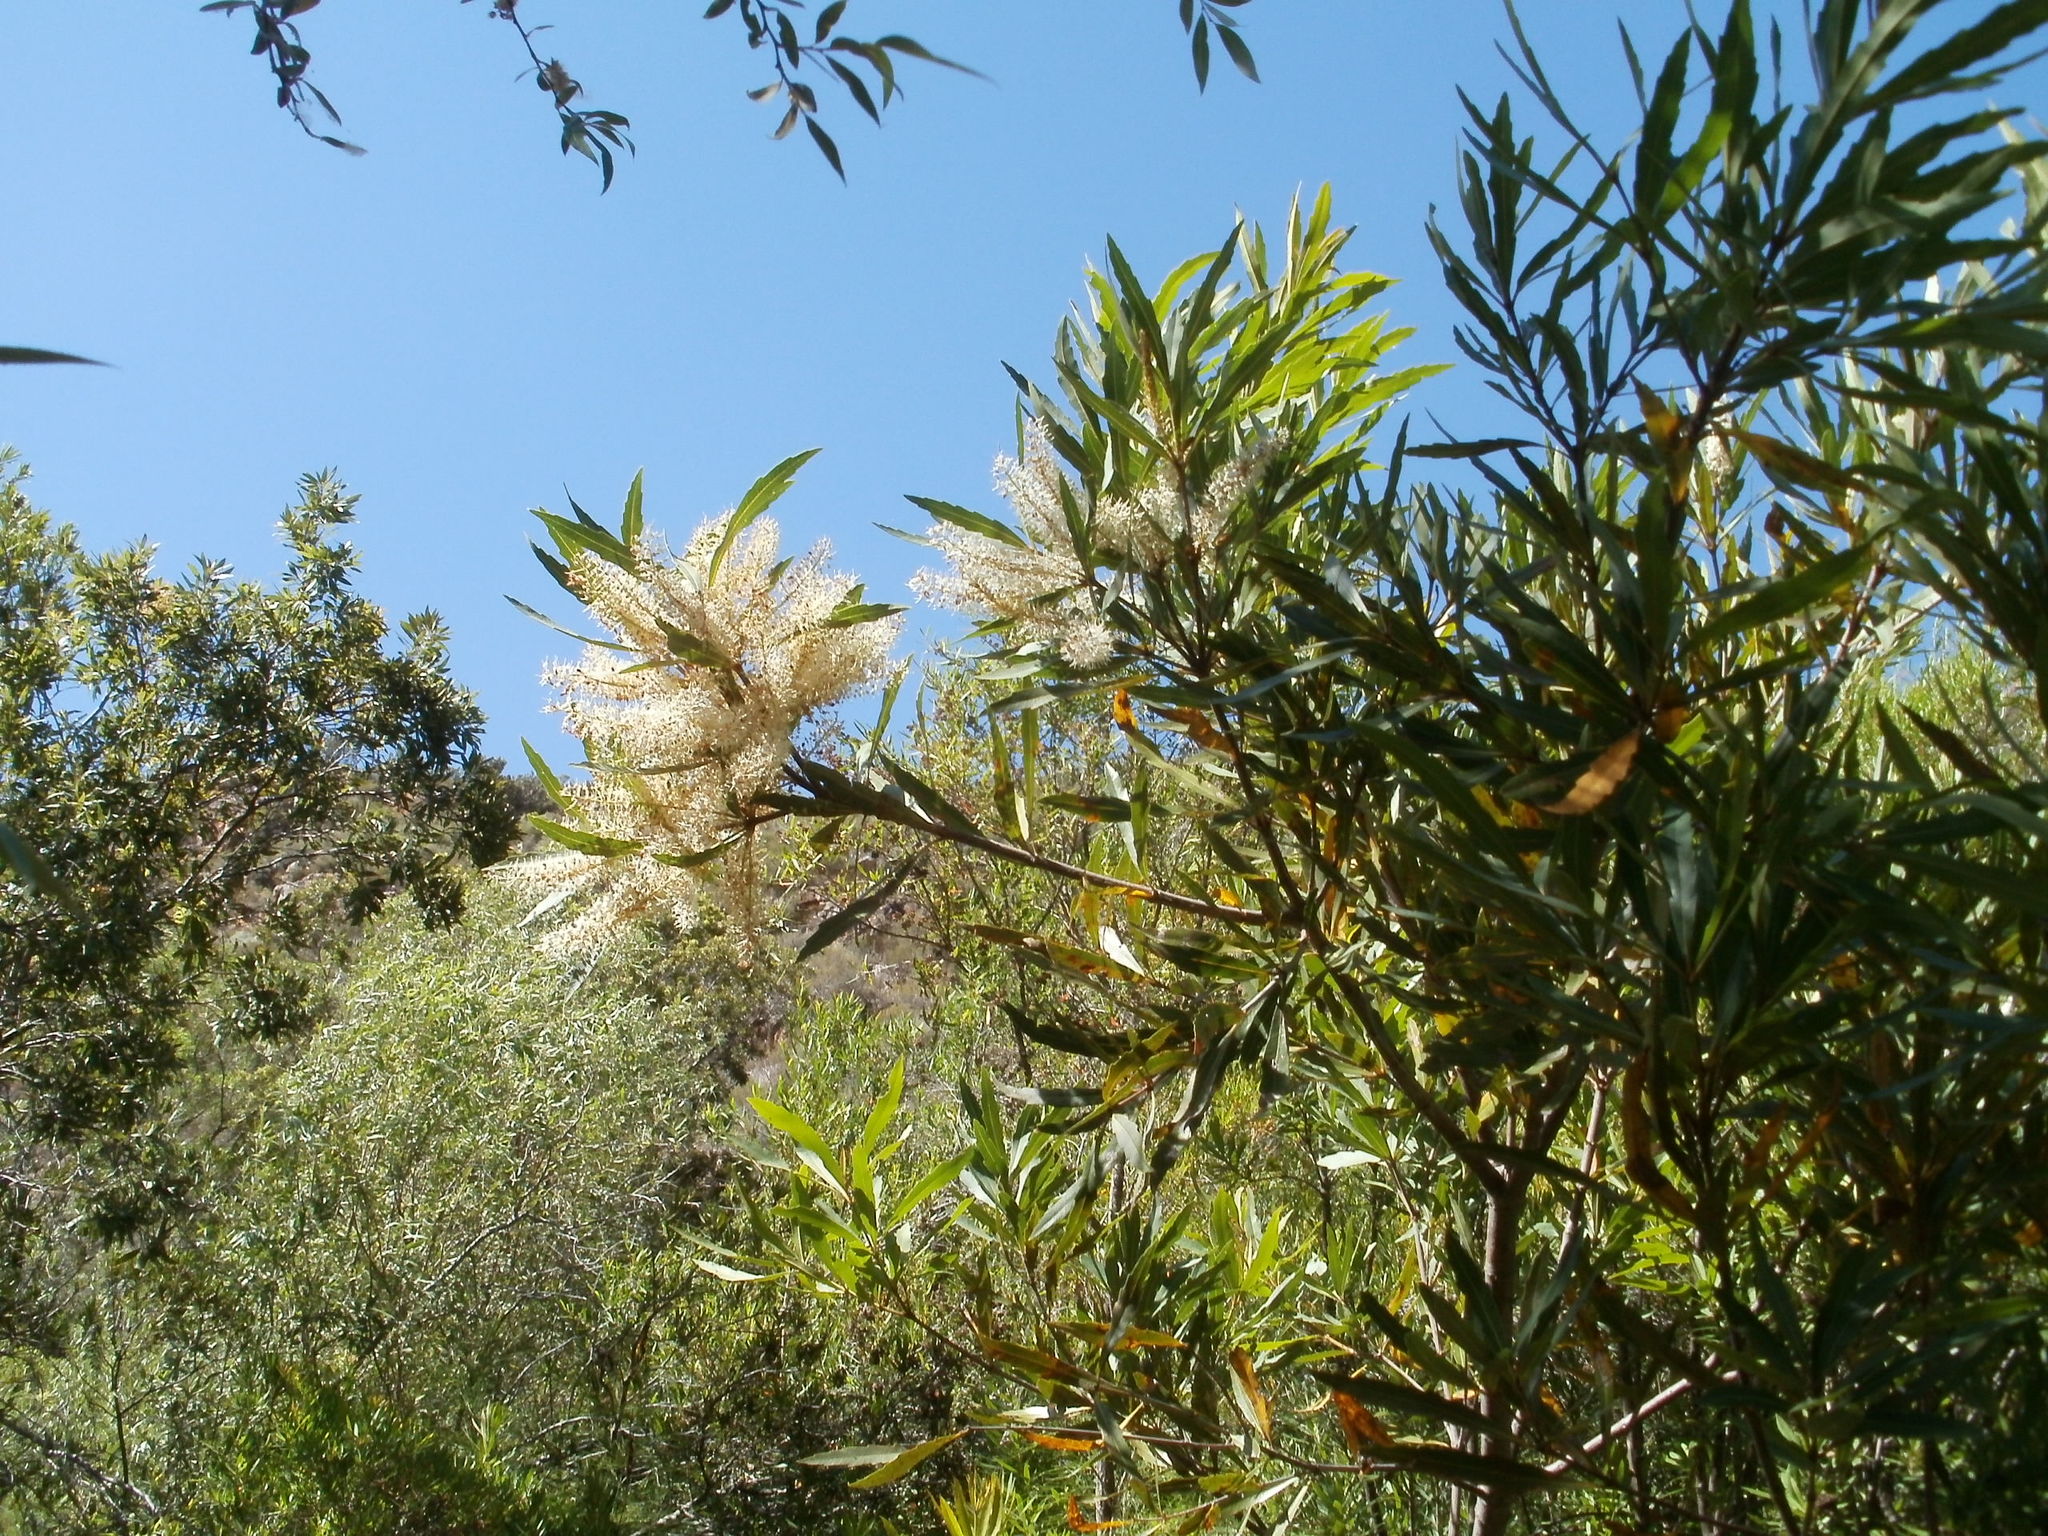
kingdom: Plantae
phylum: Tracheophyta
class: Magnoliopsida
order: Proteales
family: Proteaceae
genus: Brabejum
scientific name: Brabejum stellatifolium
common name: Wild almond
